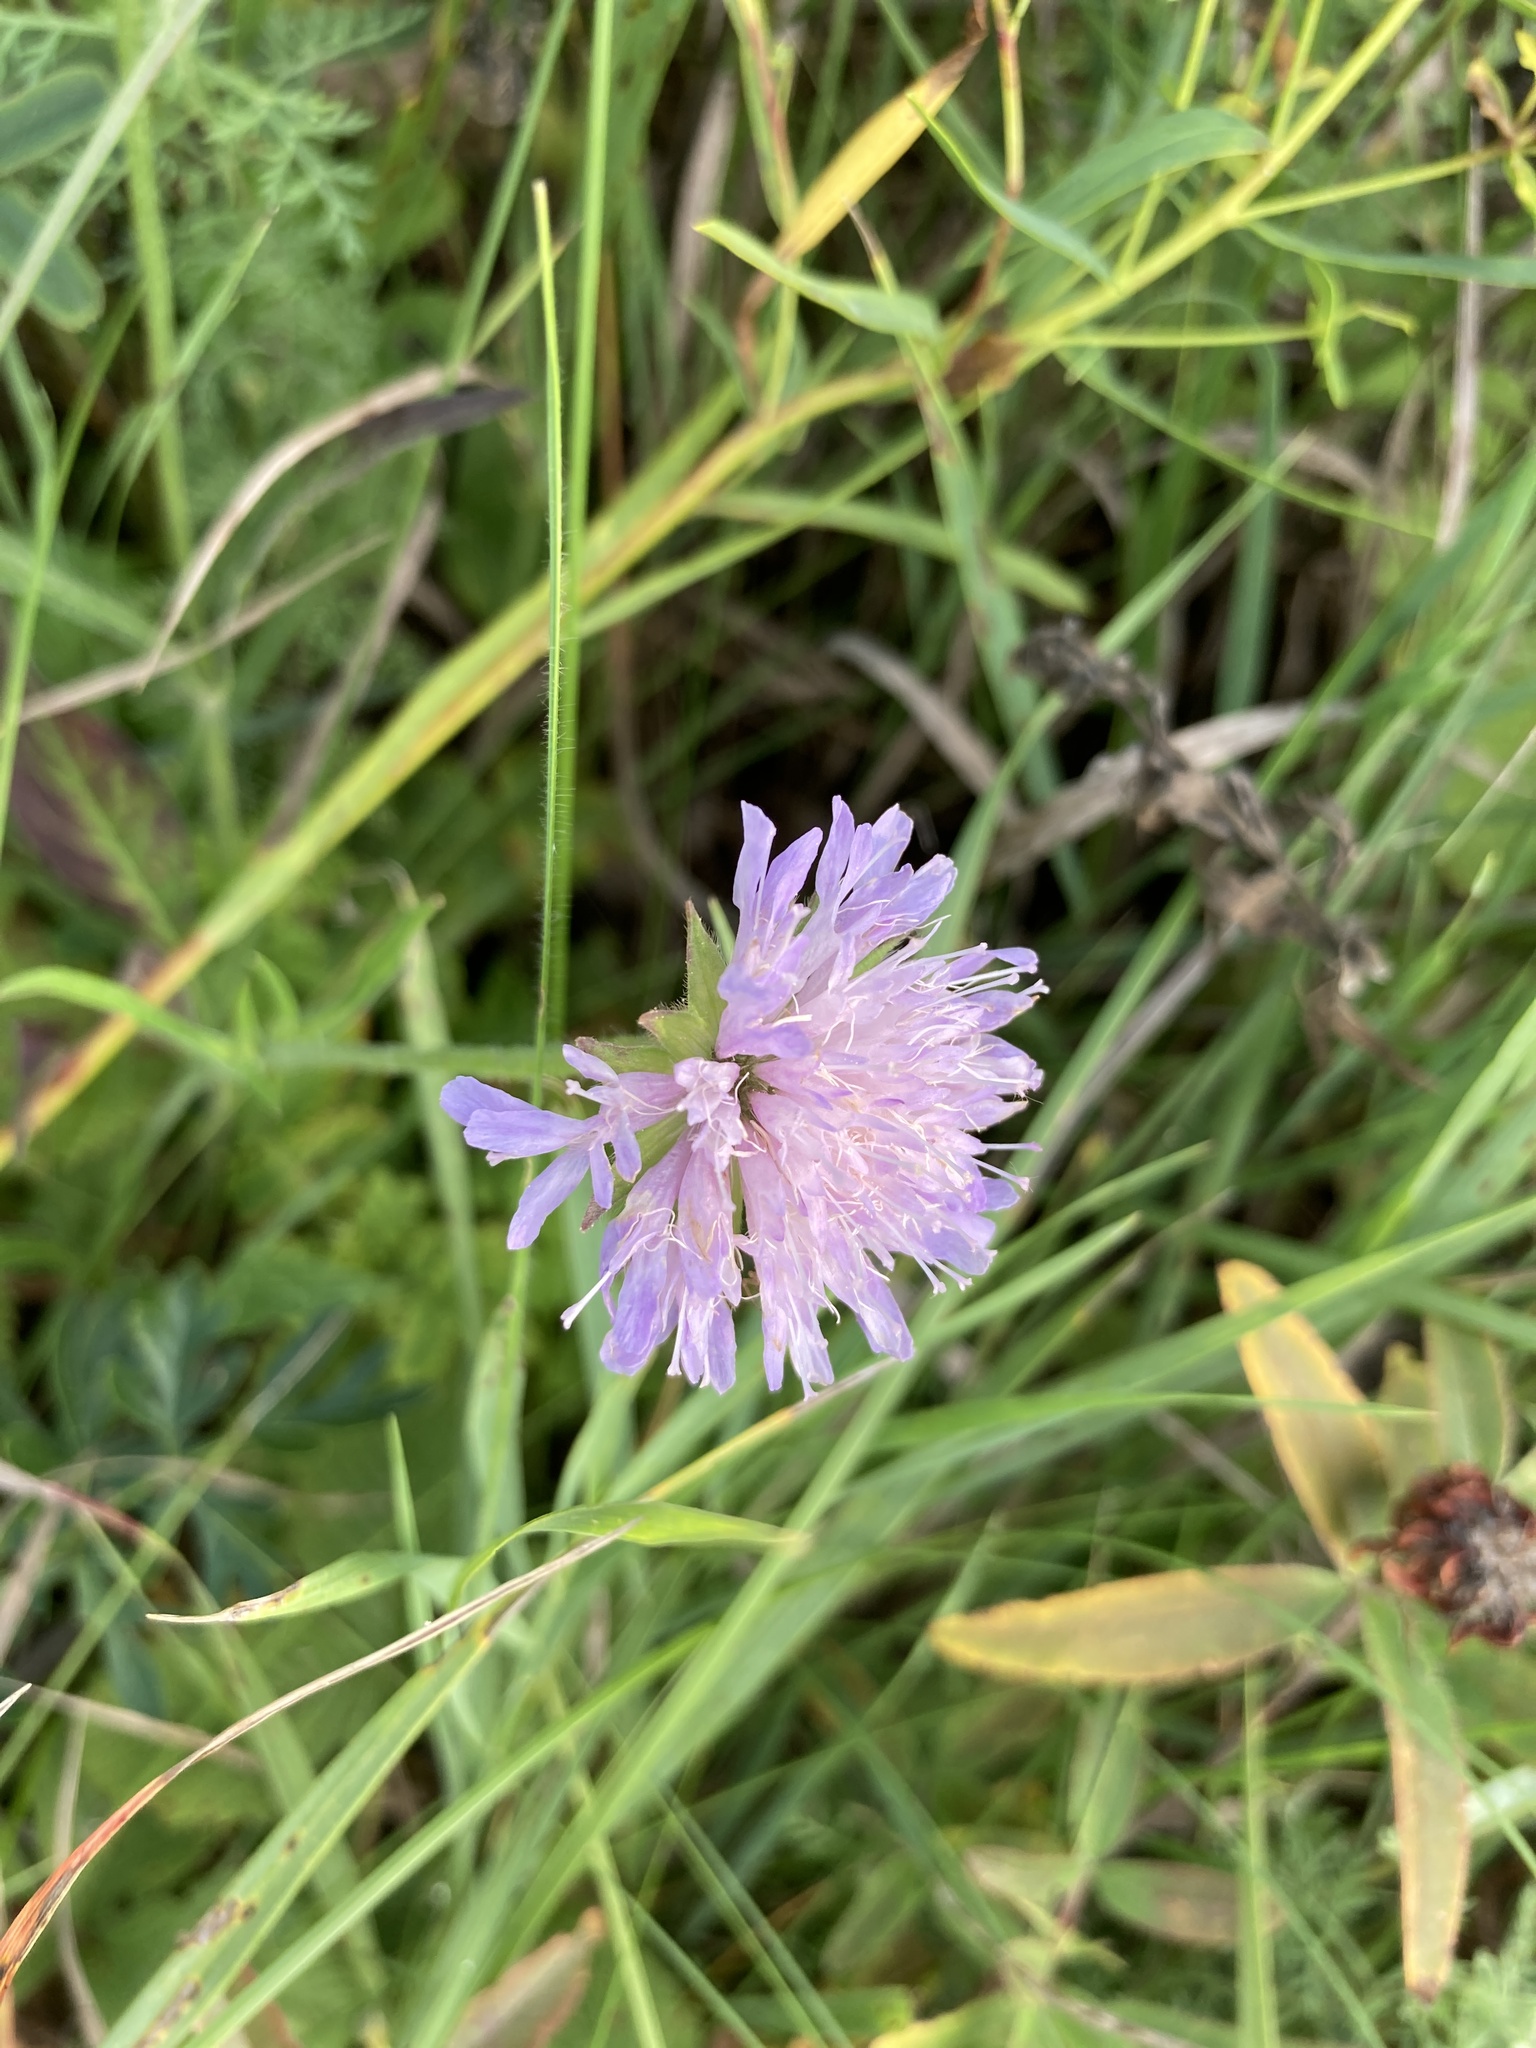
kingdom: Plantae
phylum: Tracheophyta
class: Magnoliopsida
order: Dipsacales
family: Caprifoliaceae
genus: Knautia
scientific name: Knautia arvensis
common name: Field scabiosa
